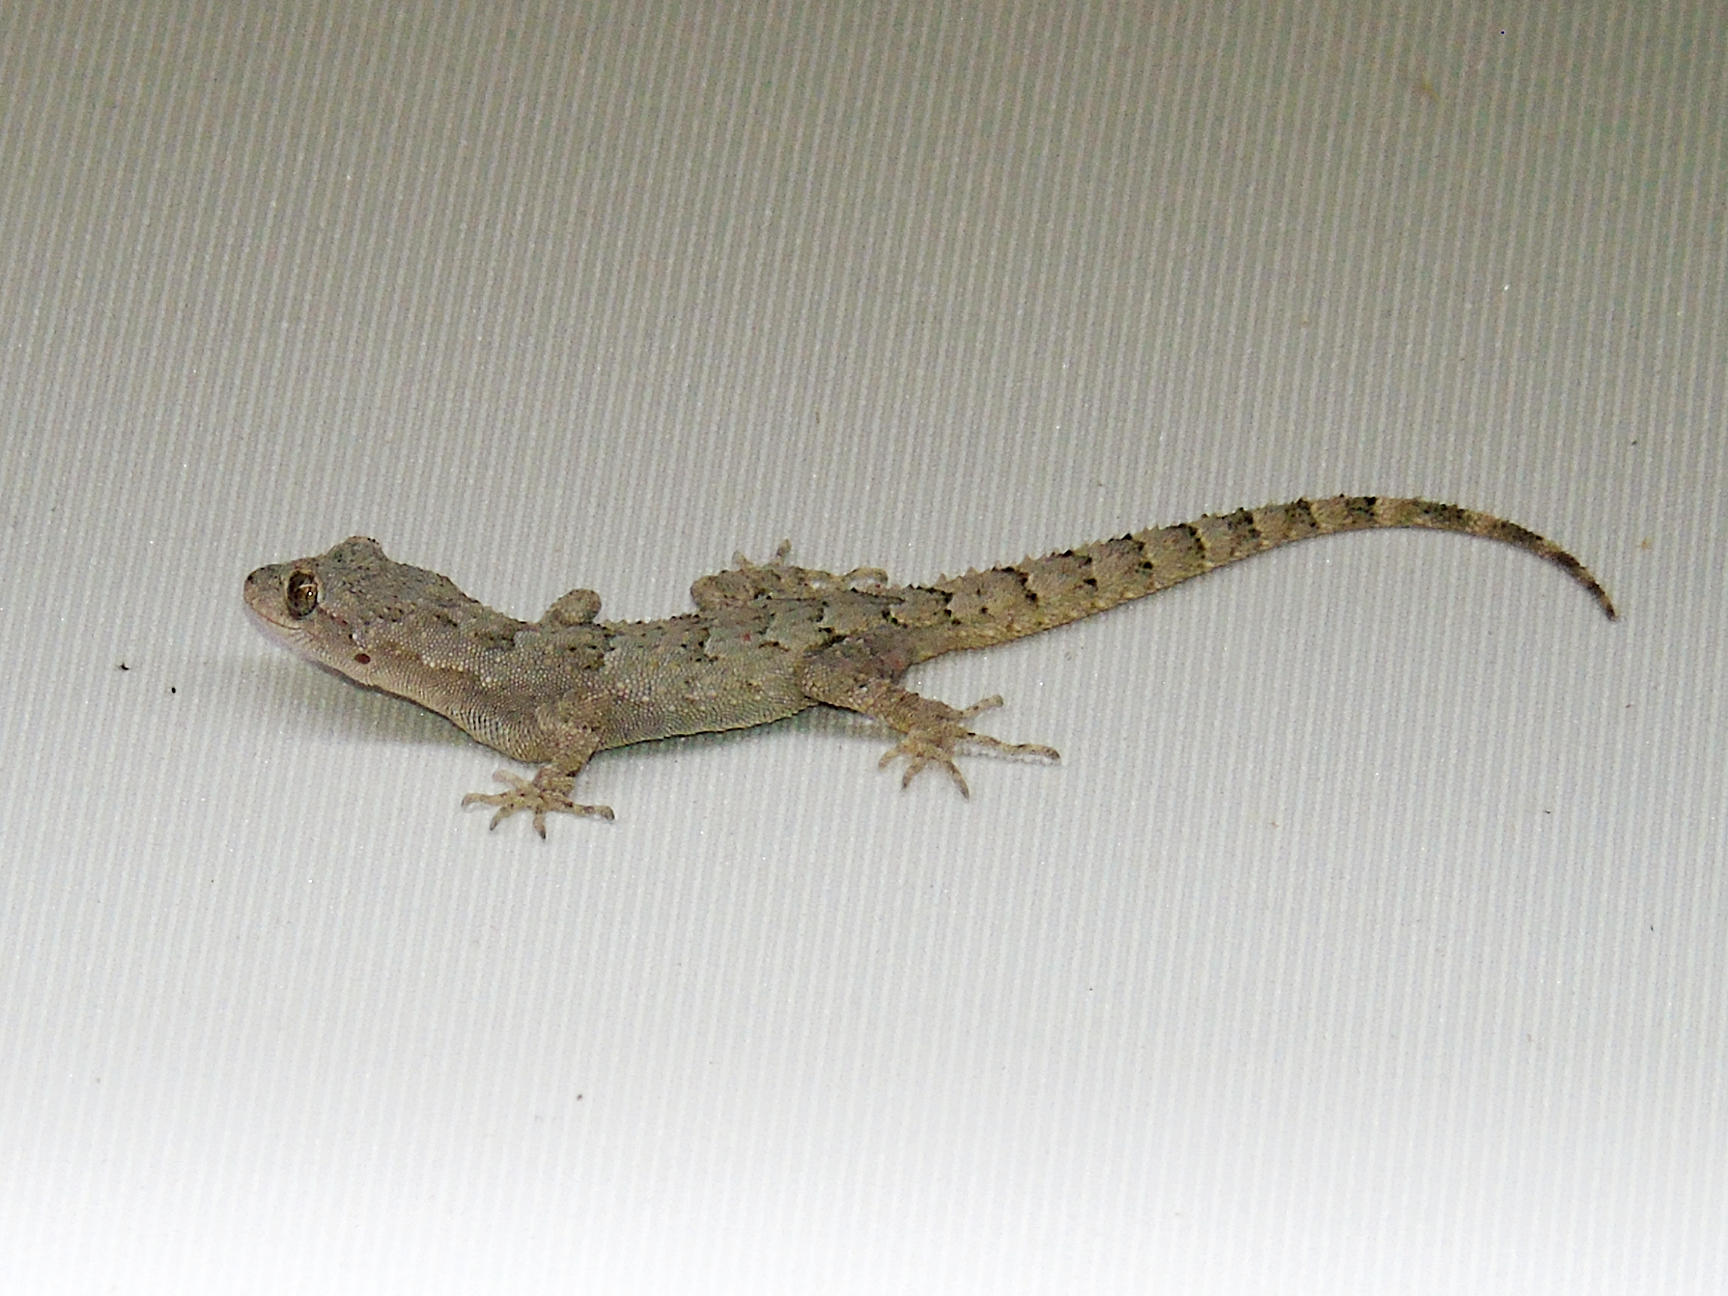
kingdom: Animalia
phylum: Chordata
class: Squamata
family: Gekkonidae
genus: Mediodactylus
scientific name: Mediodactylus danilewskii
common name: Bulgarian bent-toed gecko
